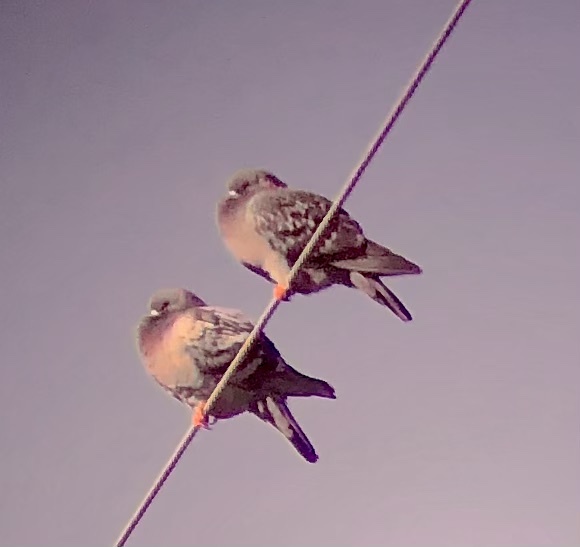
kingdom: Animalia
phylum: Chordata
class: Aves
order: Columbiformes
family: Columbidae
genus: Columba
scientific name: Columba livia
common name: Rock pigeon
